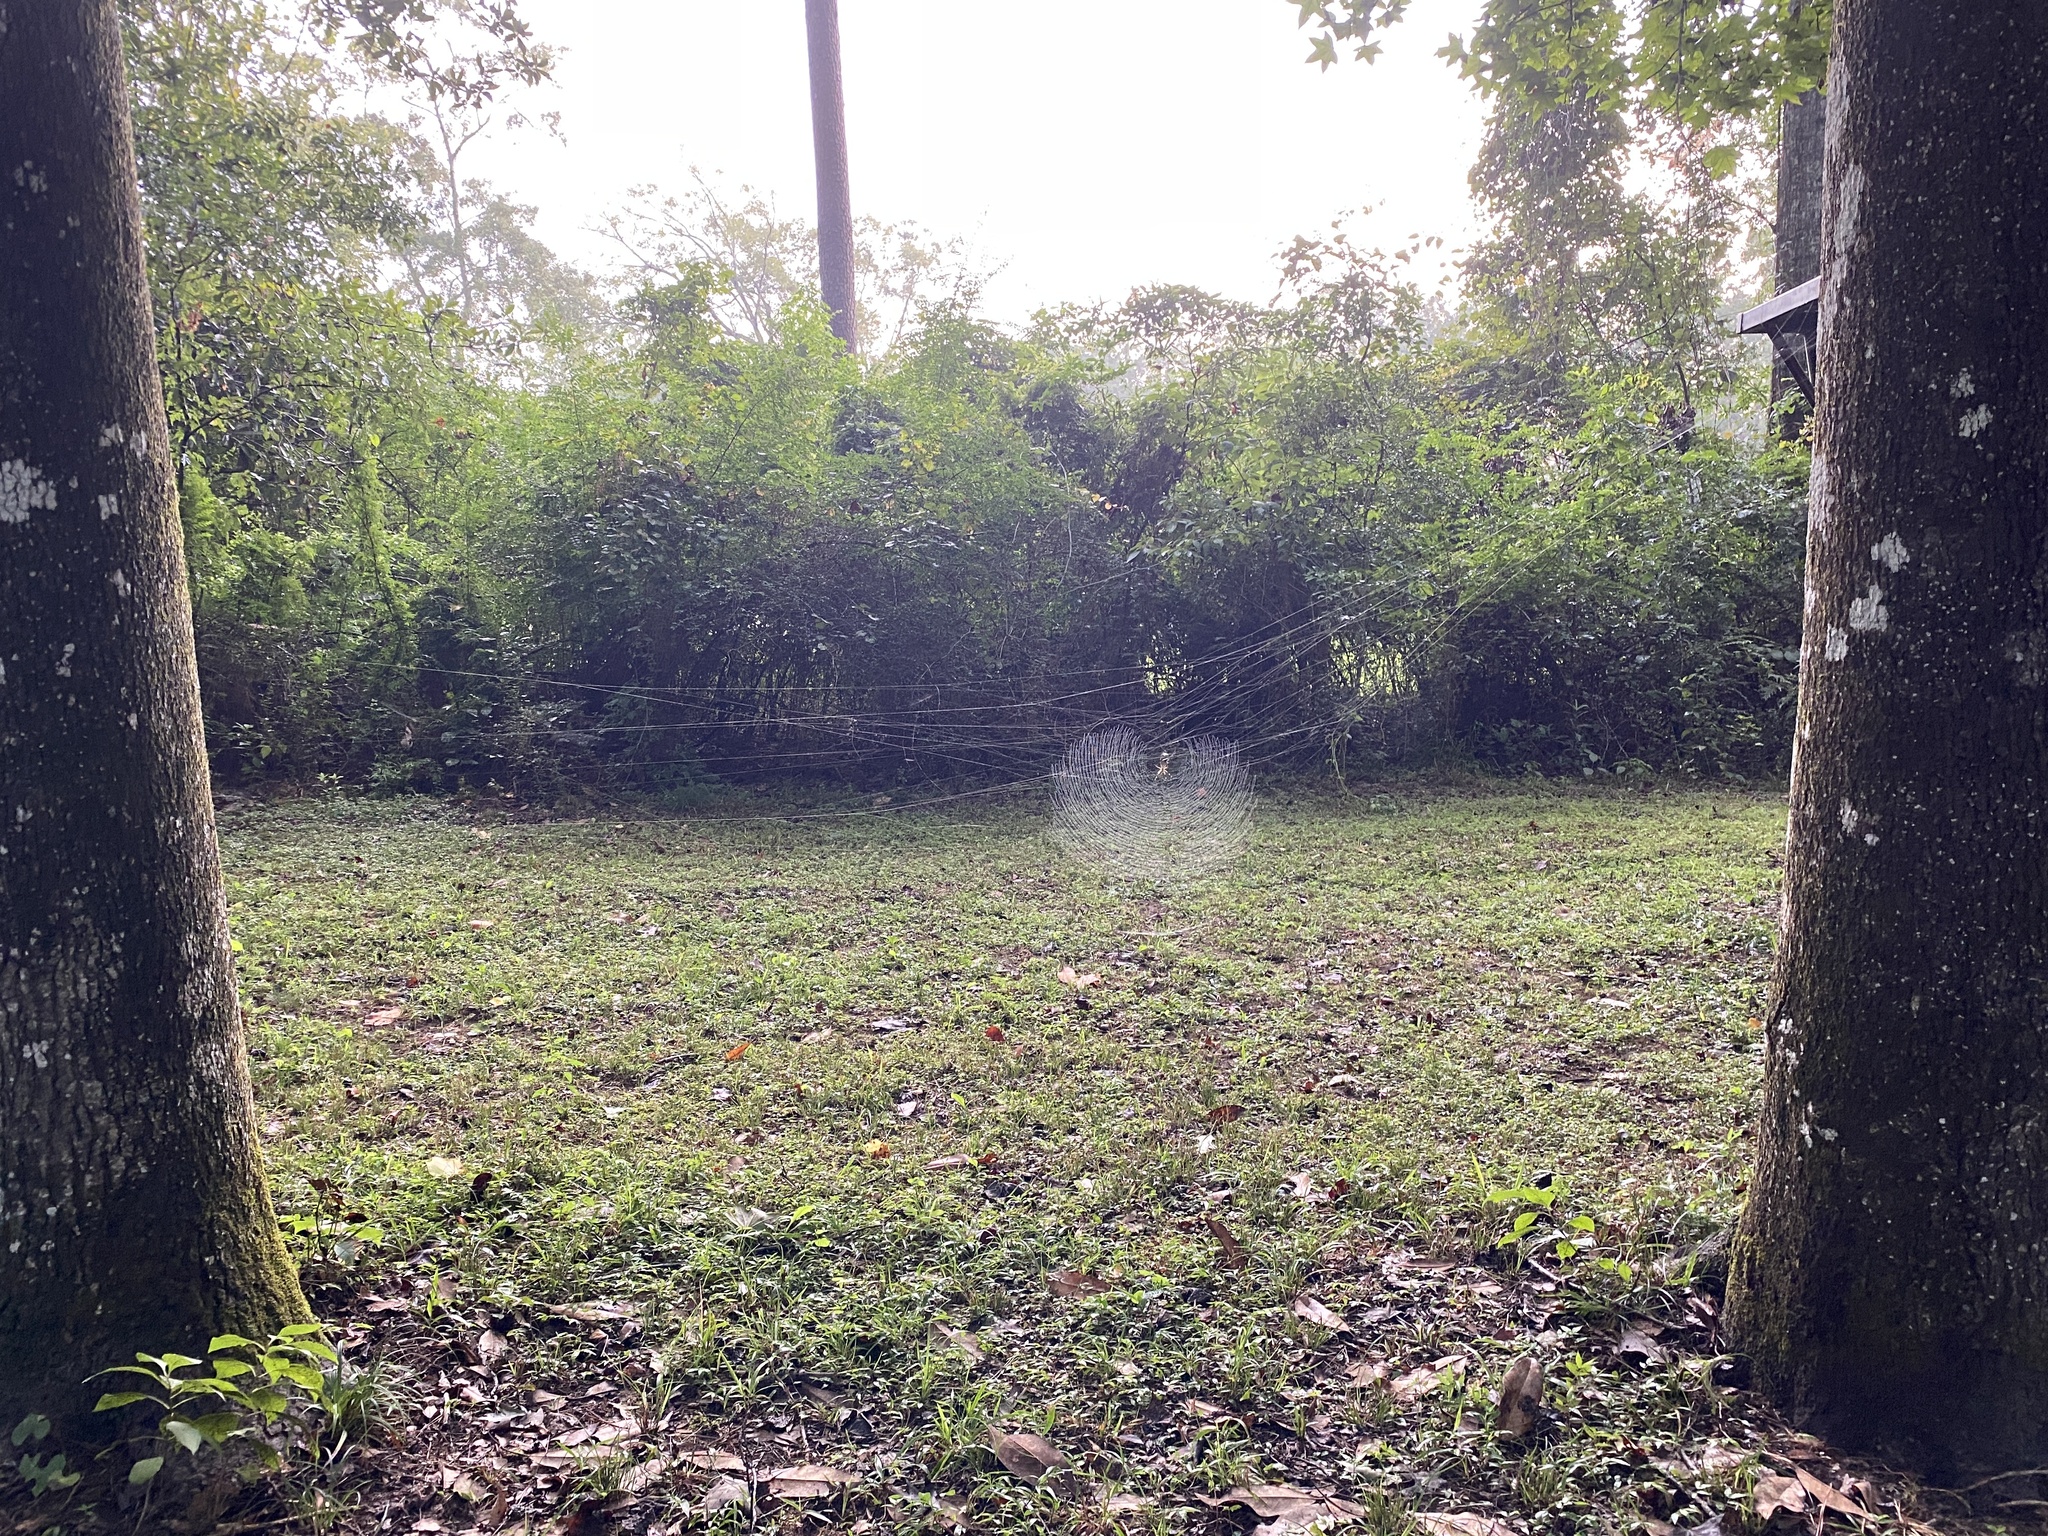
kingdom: Animalia
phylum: Arthropoda
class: Arachnida
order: Araneae
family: Araneidae
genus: Trichonephila
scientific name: Trichonephila clavipes
